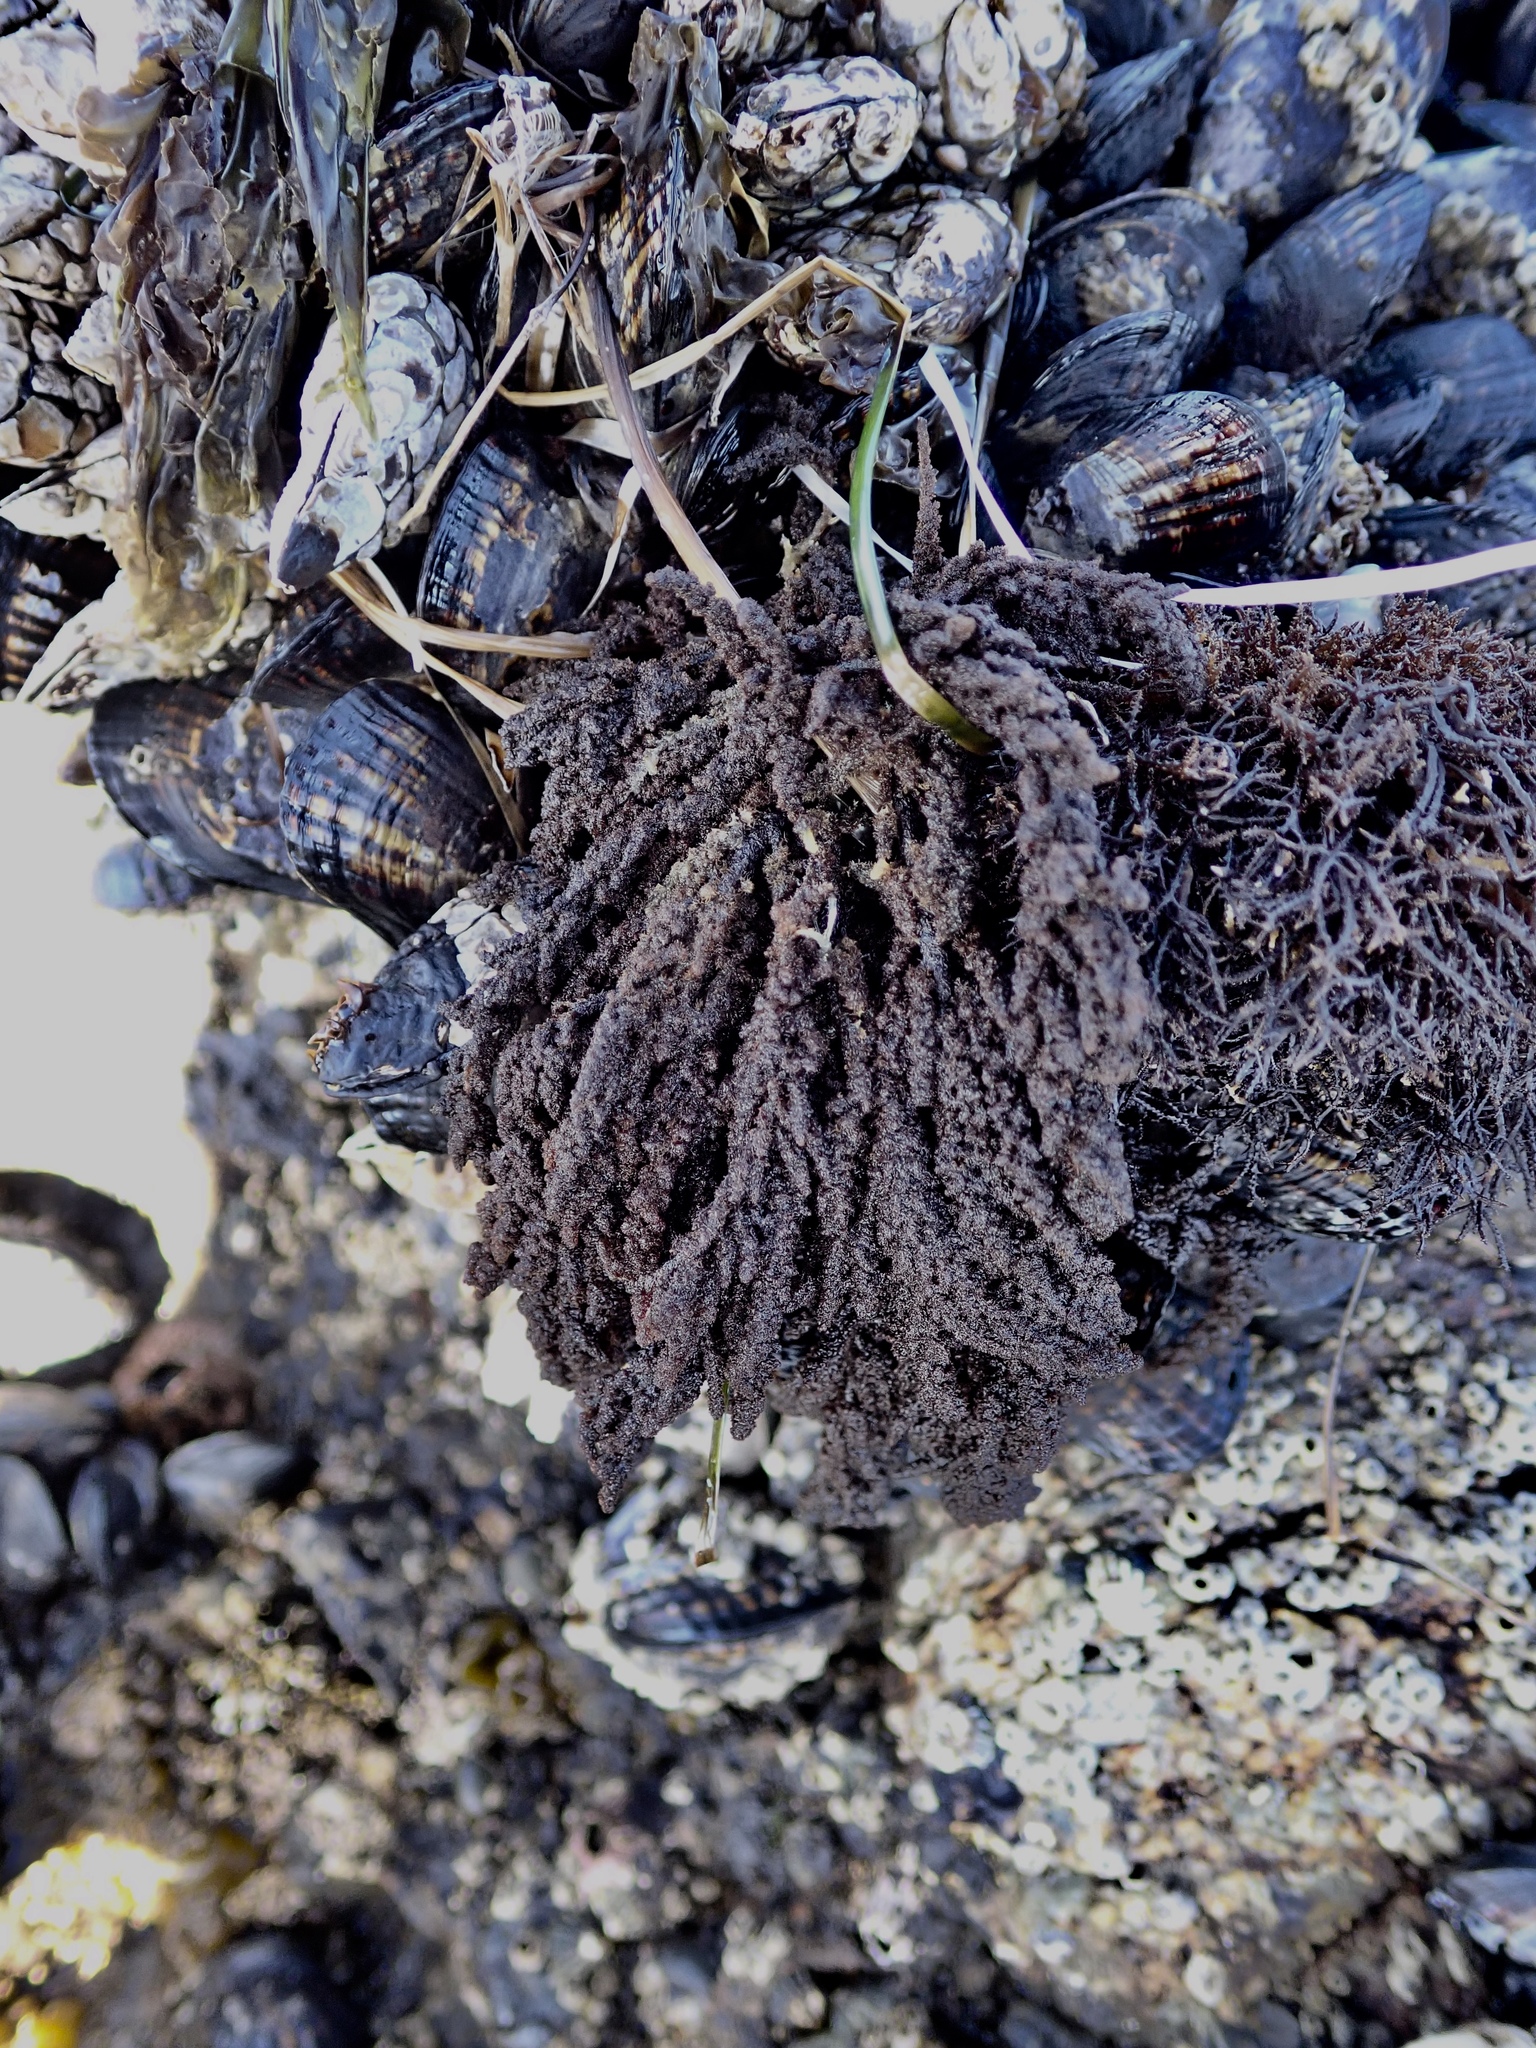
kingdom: Plantae
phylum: Rhodophyta
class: Florideophyceae
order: Ceramiales
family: Callithamniaceae
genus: Callithamnion
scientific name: Callithamnion pikeanum
